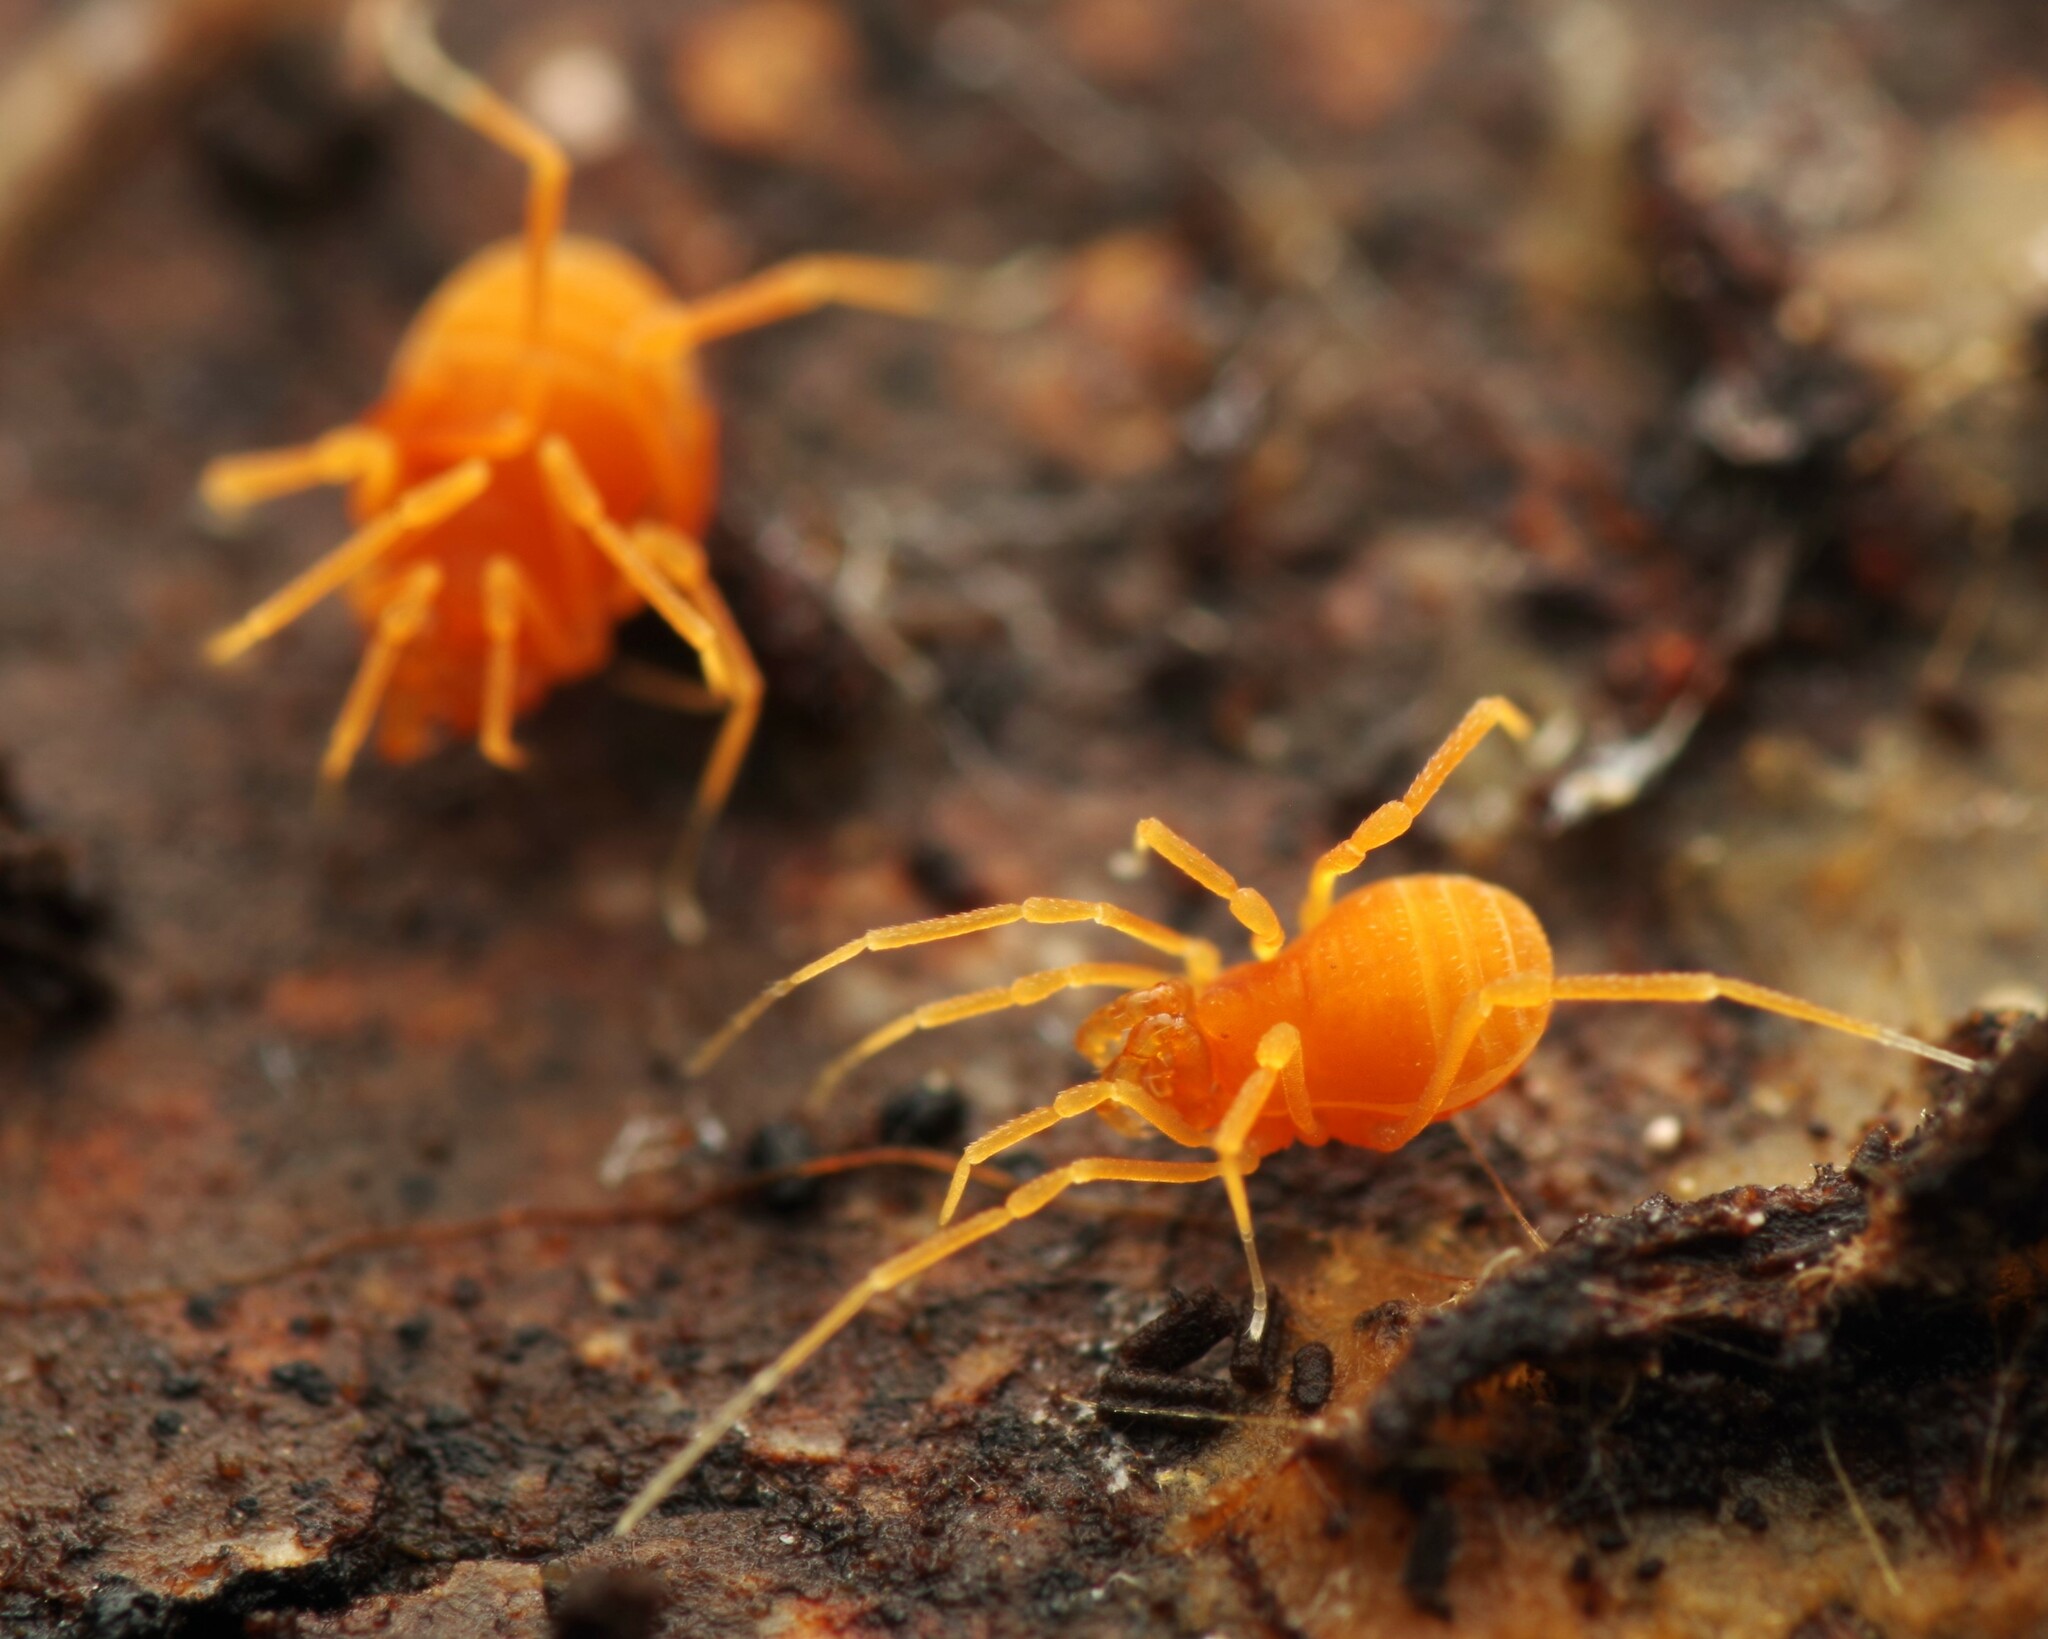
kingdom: Animalia
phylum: Arthropoda
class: Arachnida
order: Opiliones
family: Phalangodidae
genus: Scotolemon
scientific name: Scotolemon doriae
